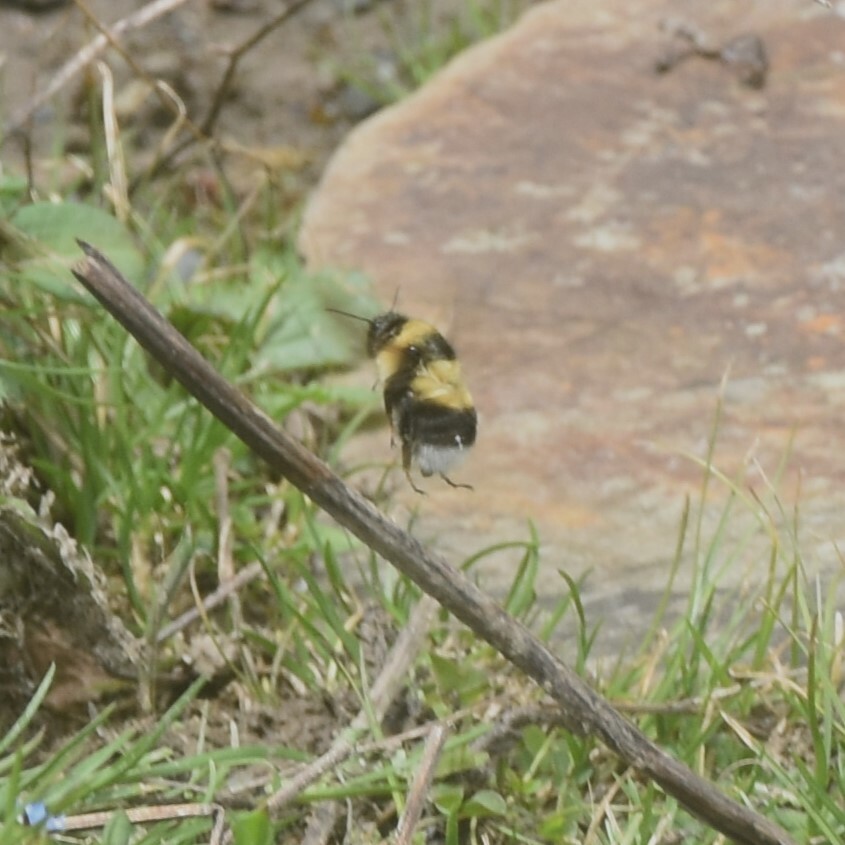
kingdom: Animalia
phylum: Arthropoda
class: Insecta
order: Hymenoptera
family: Apidae
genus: Bombus
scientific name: Bombus eurythorax
